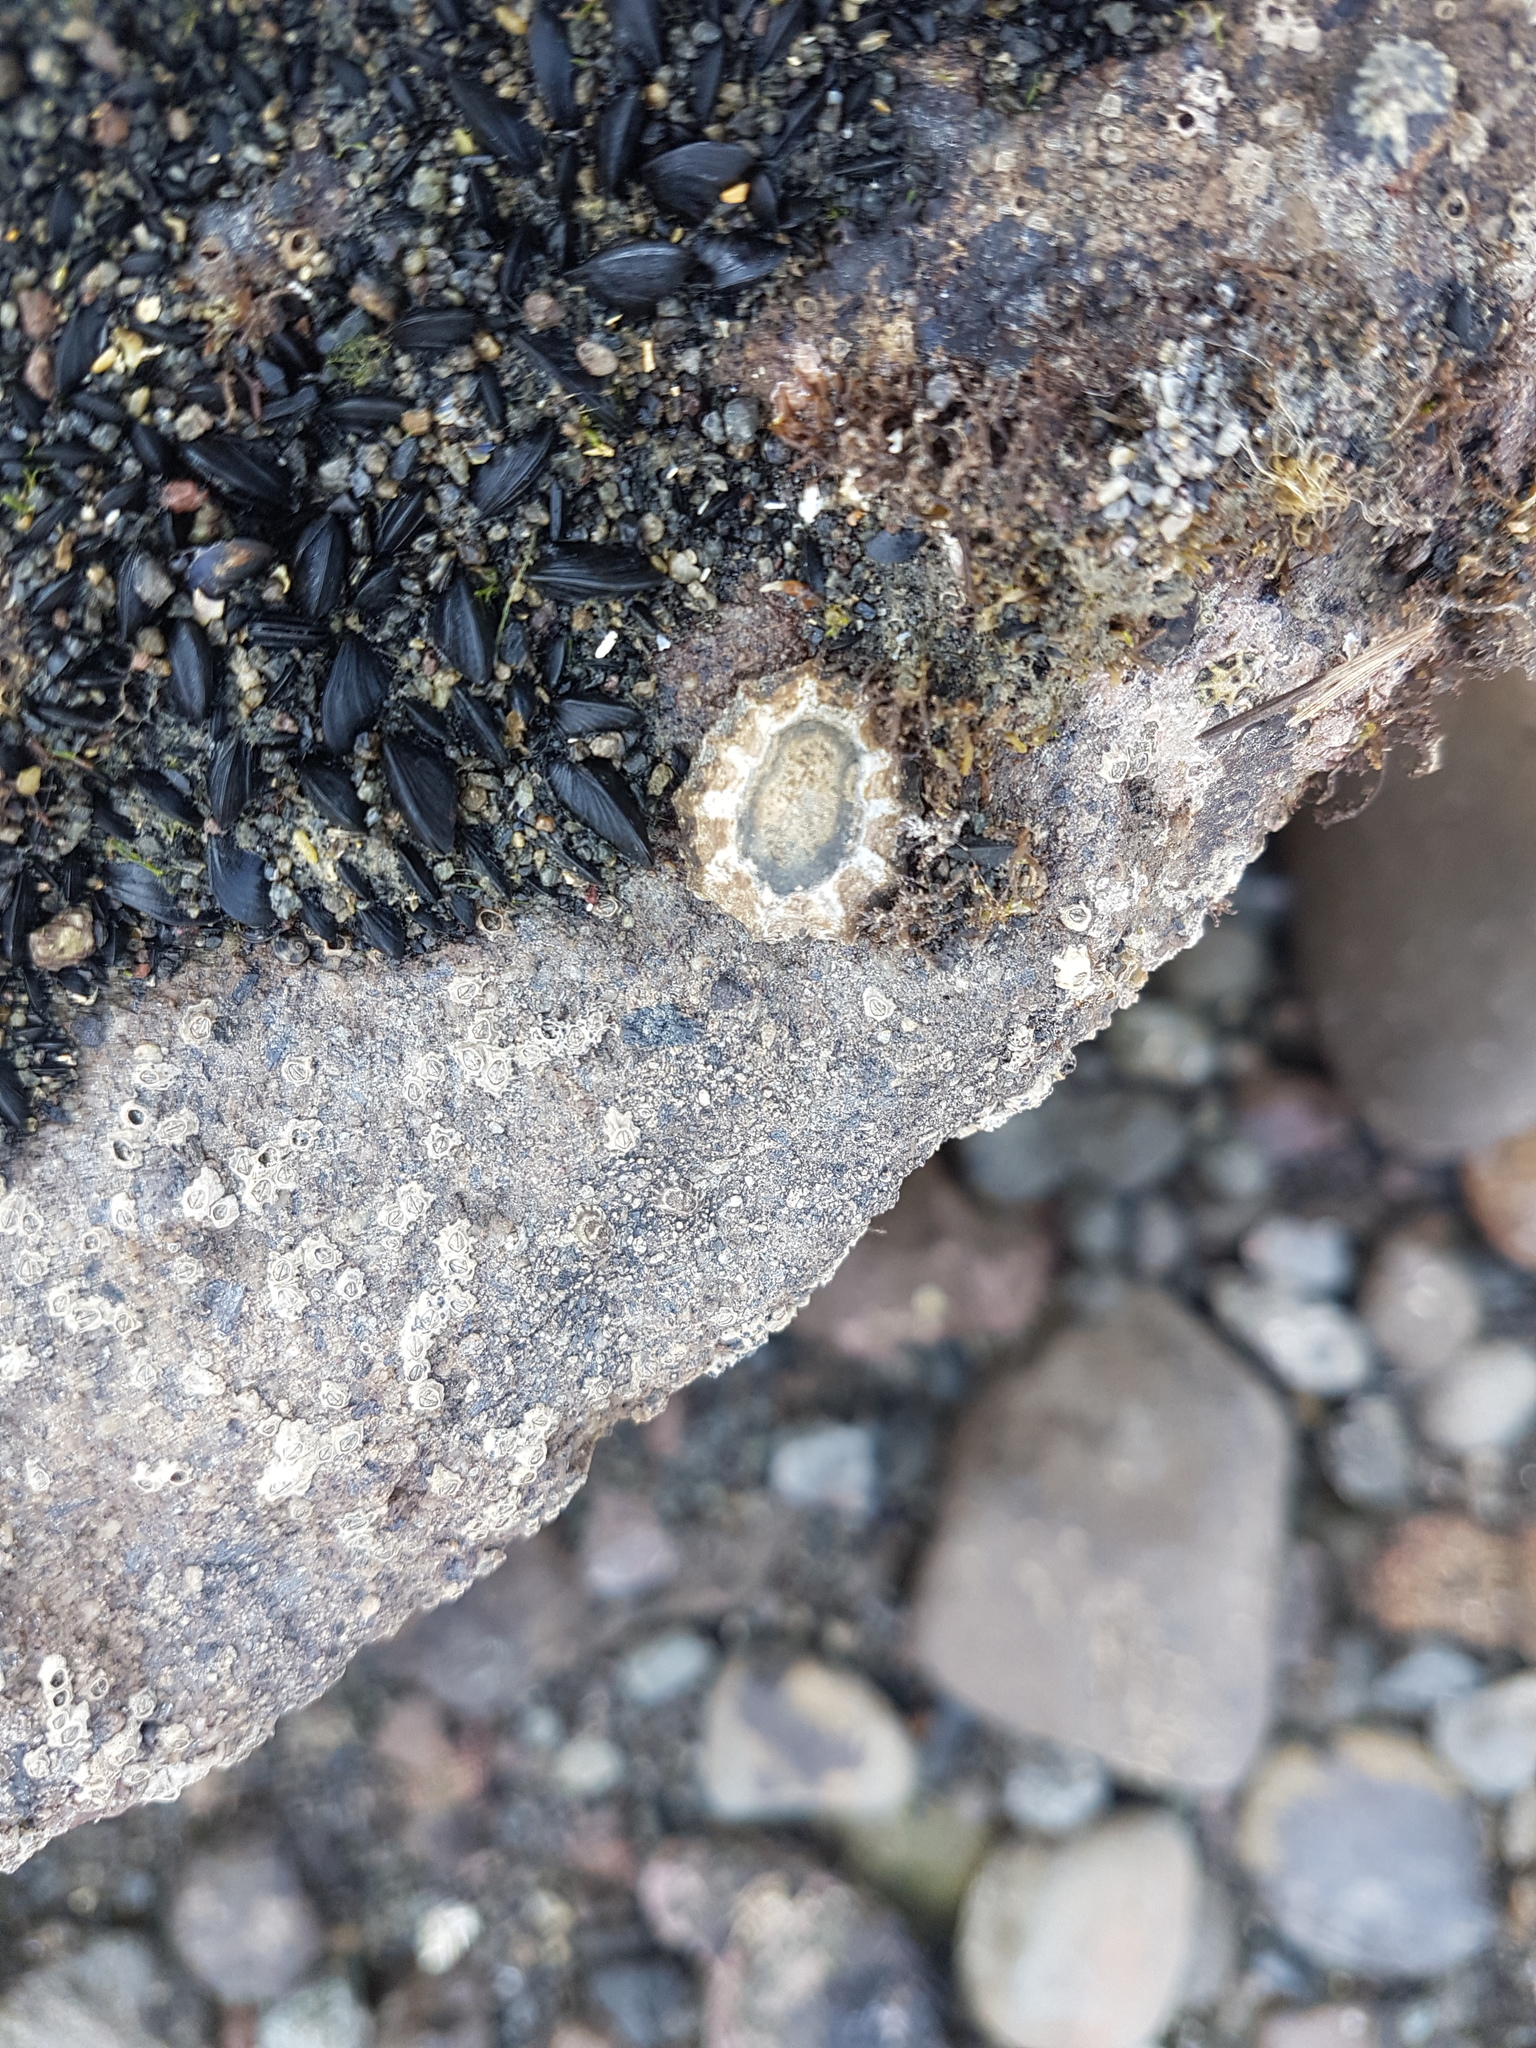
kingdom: Animalia
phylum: Mollusca
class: Gastropoda
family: Nacellidae
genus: Cellana
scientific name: Cellana ornata
